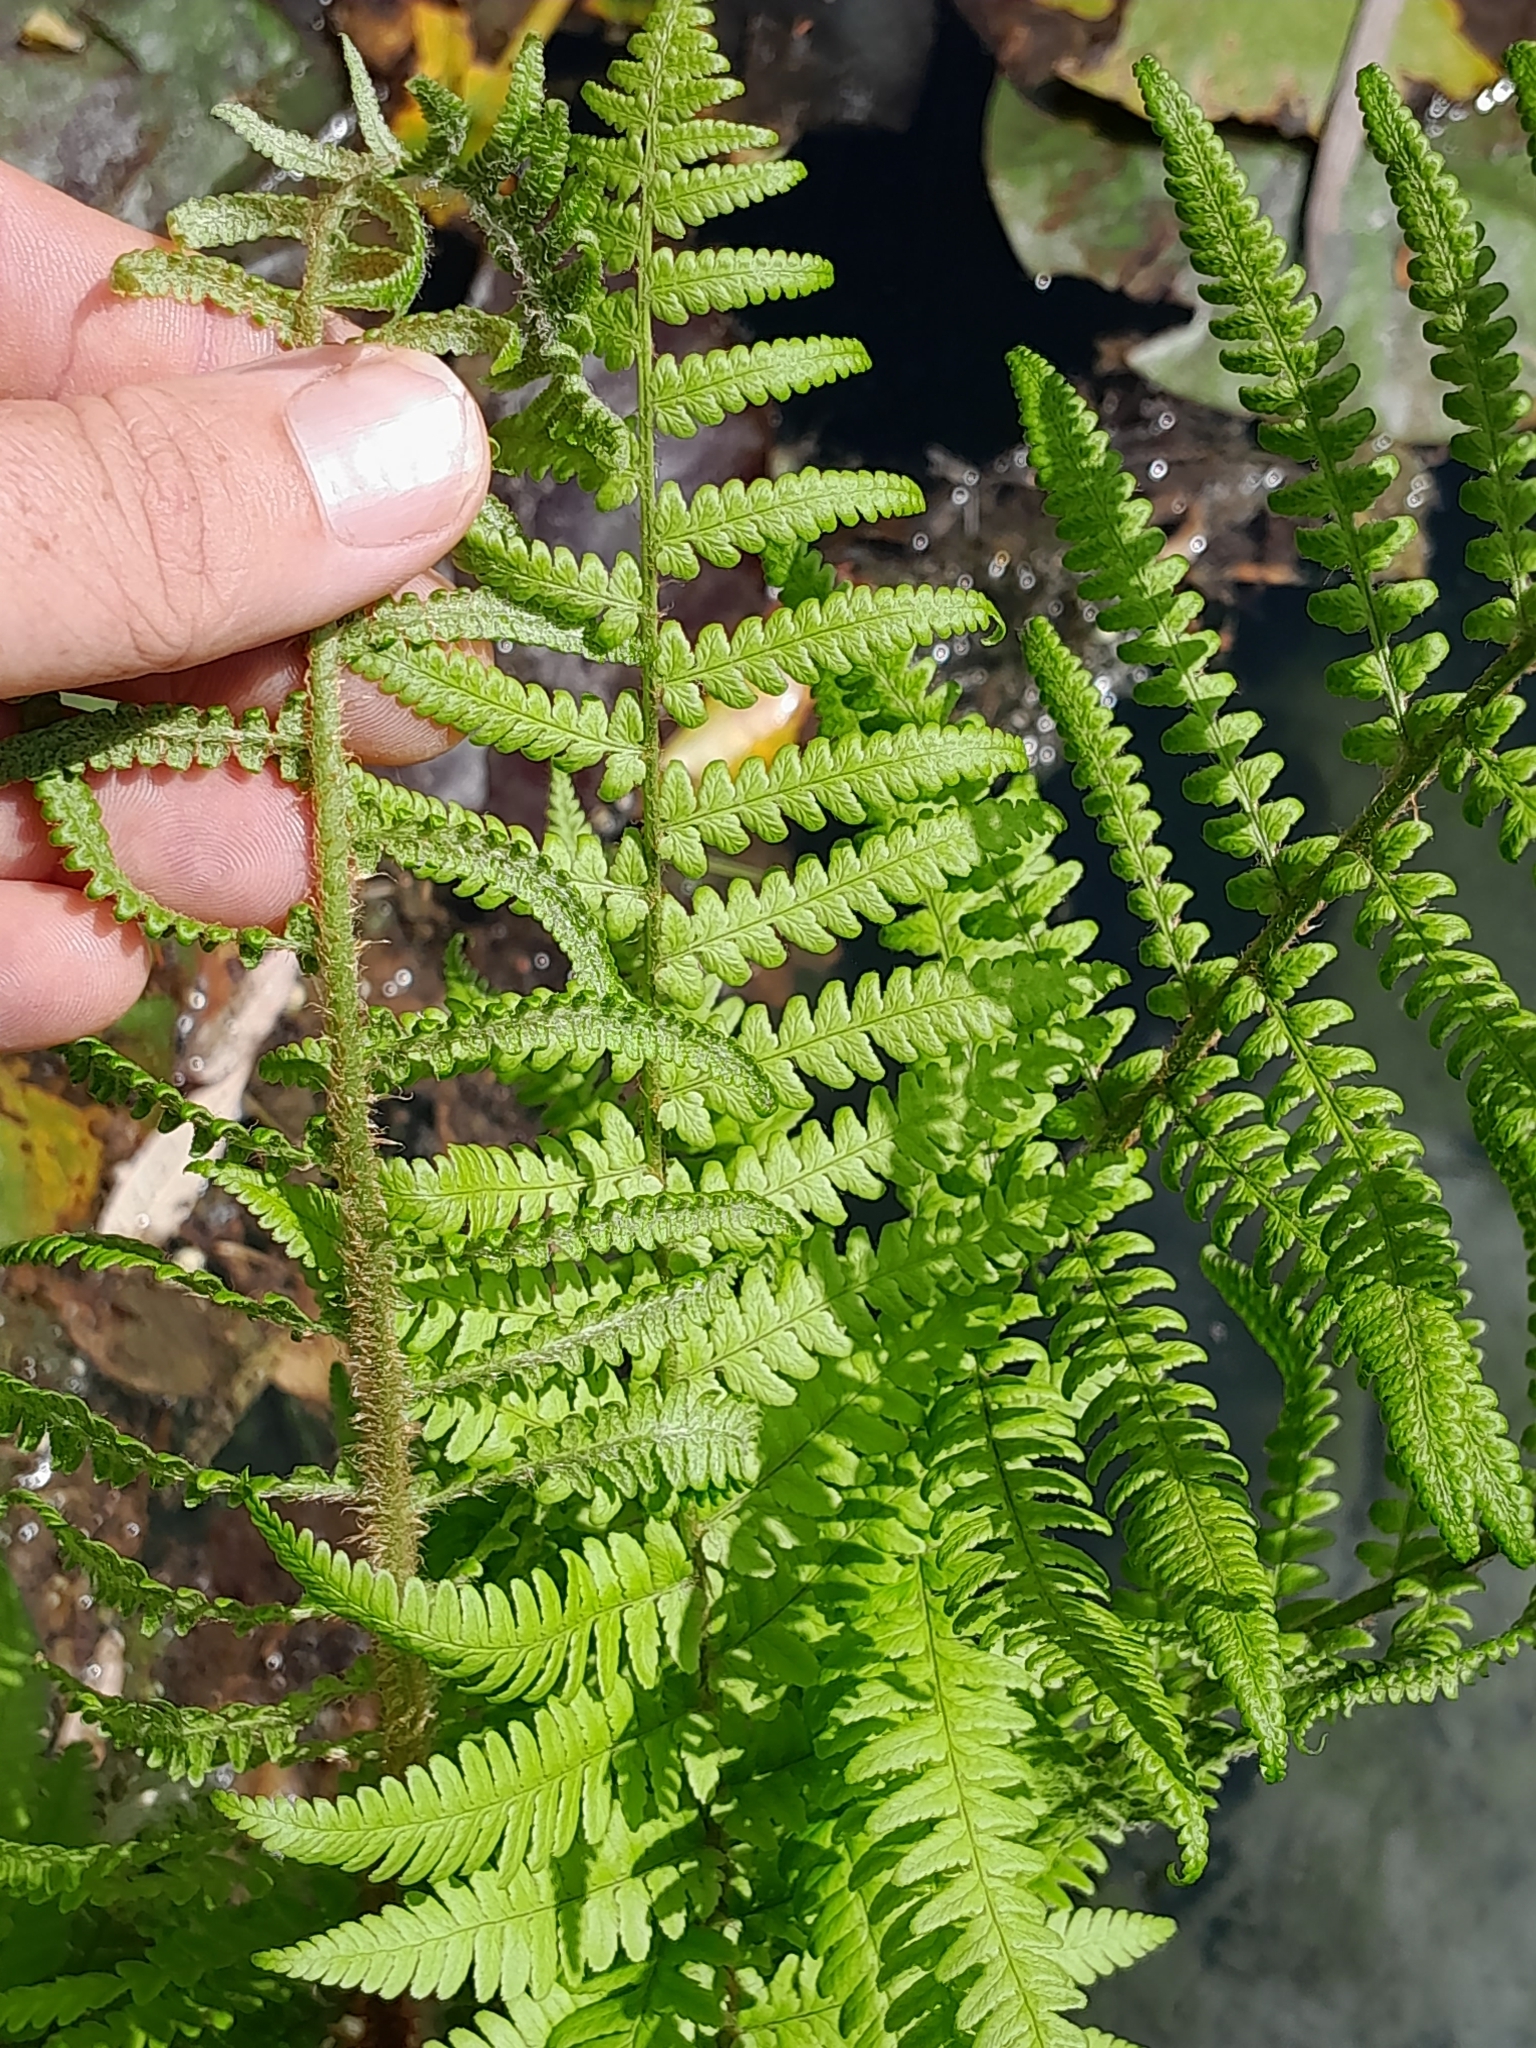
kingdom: Plantae
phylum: Tracheophyta
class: Polypodiopsida
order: Polypodiales
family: Dryopteridaceae
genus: Dryopteris
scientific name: Dryopteris filix-mas
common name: Male fern
